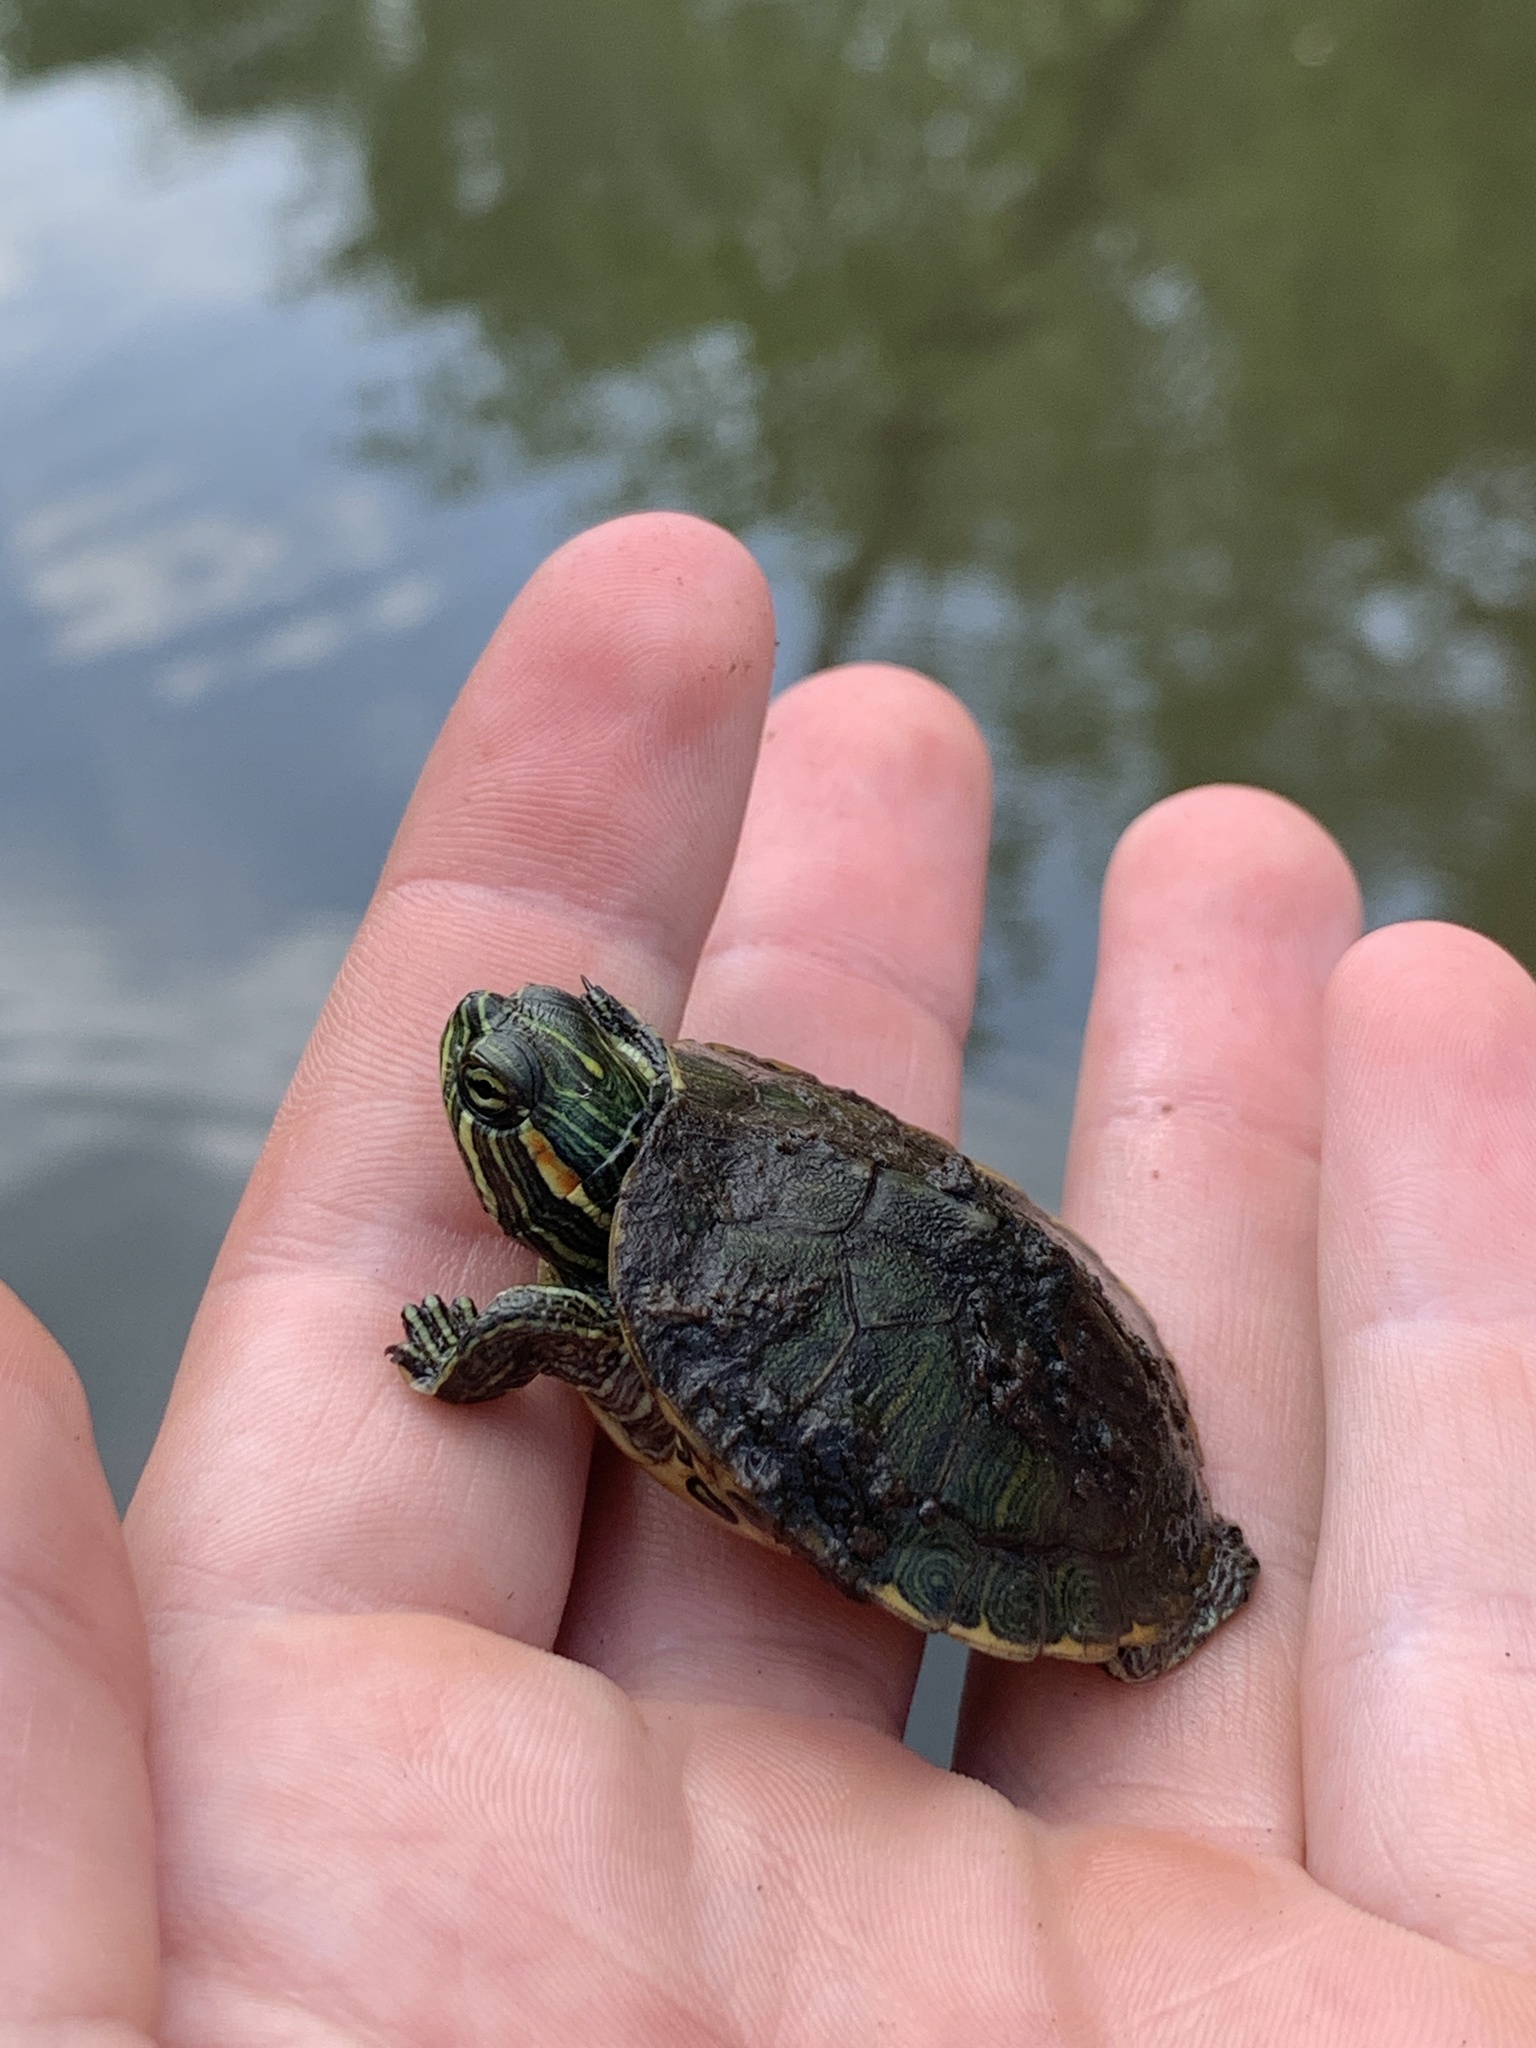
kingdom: Animalia
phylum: Chordata
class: Testudines
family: Emydidae
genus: Trachemys
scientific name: Trachemys scripta
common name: Slider
